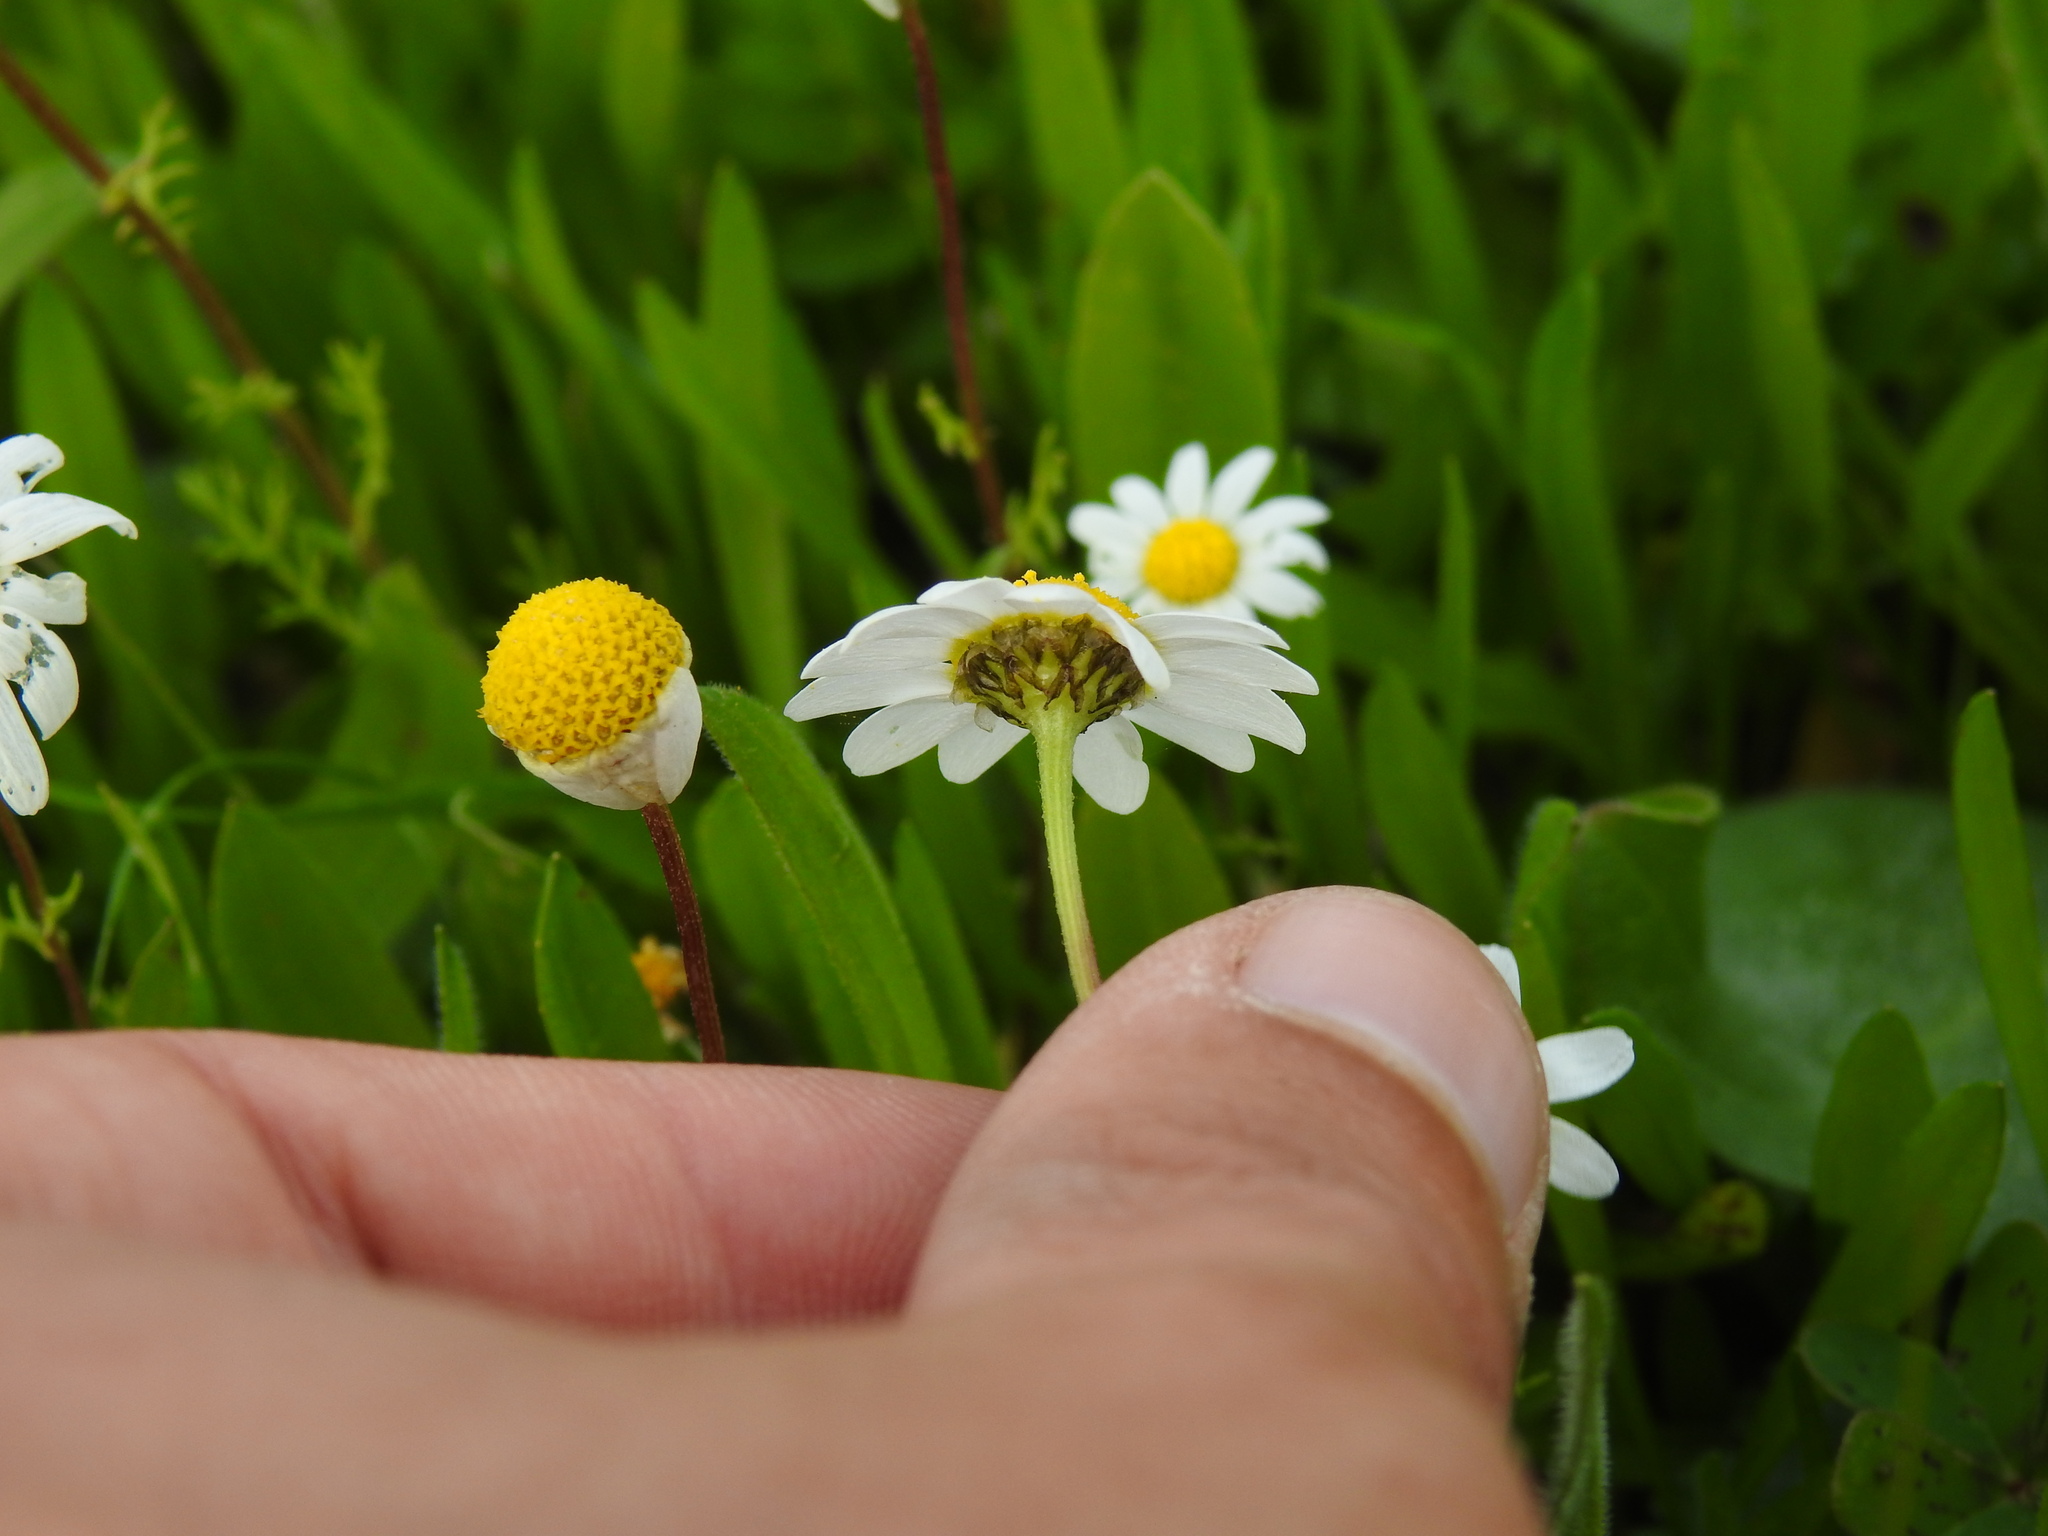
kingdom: Plantae
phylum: Tracheophyta
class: Magnoliopsida
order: Asterales
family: Asteraceae
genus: Chamaemelum
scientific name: Chamaemelum fuscatum
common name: Chamomile
